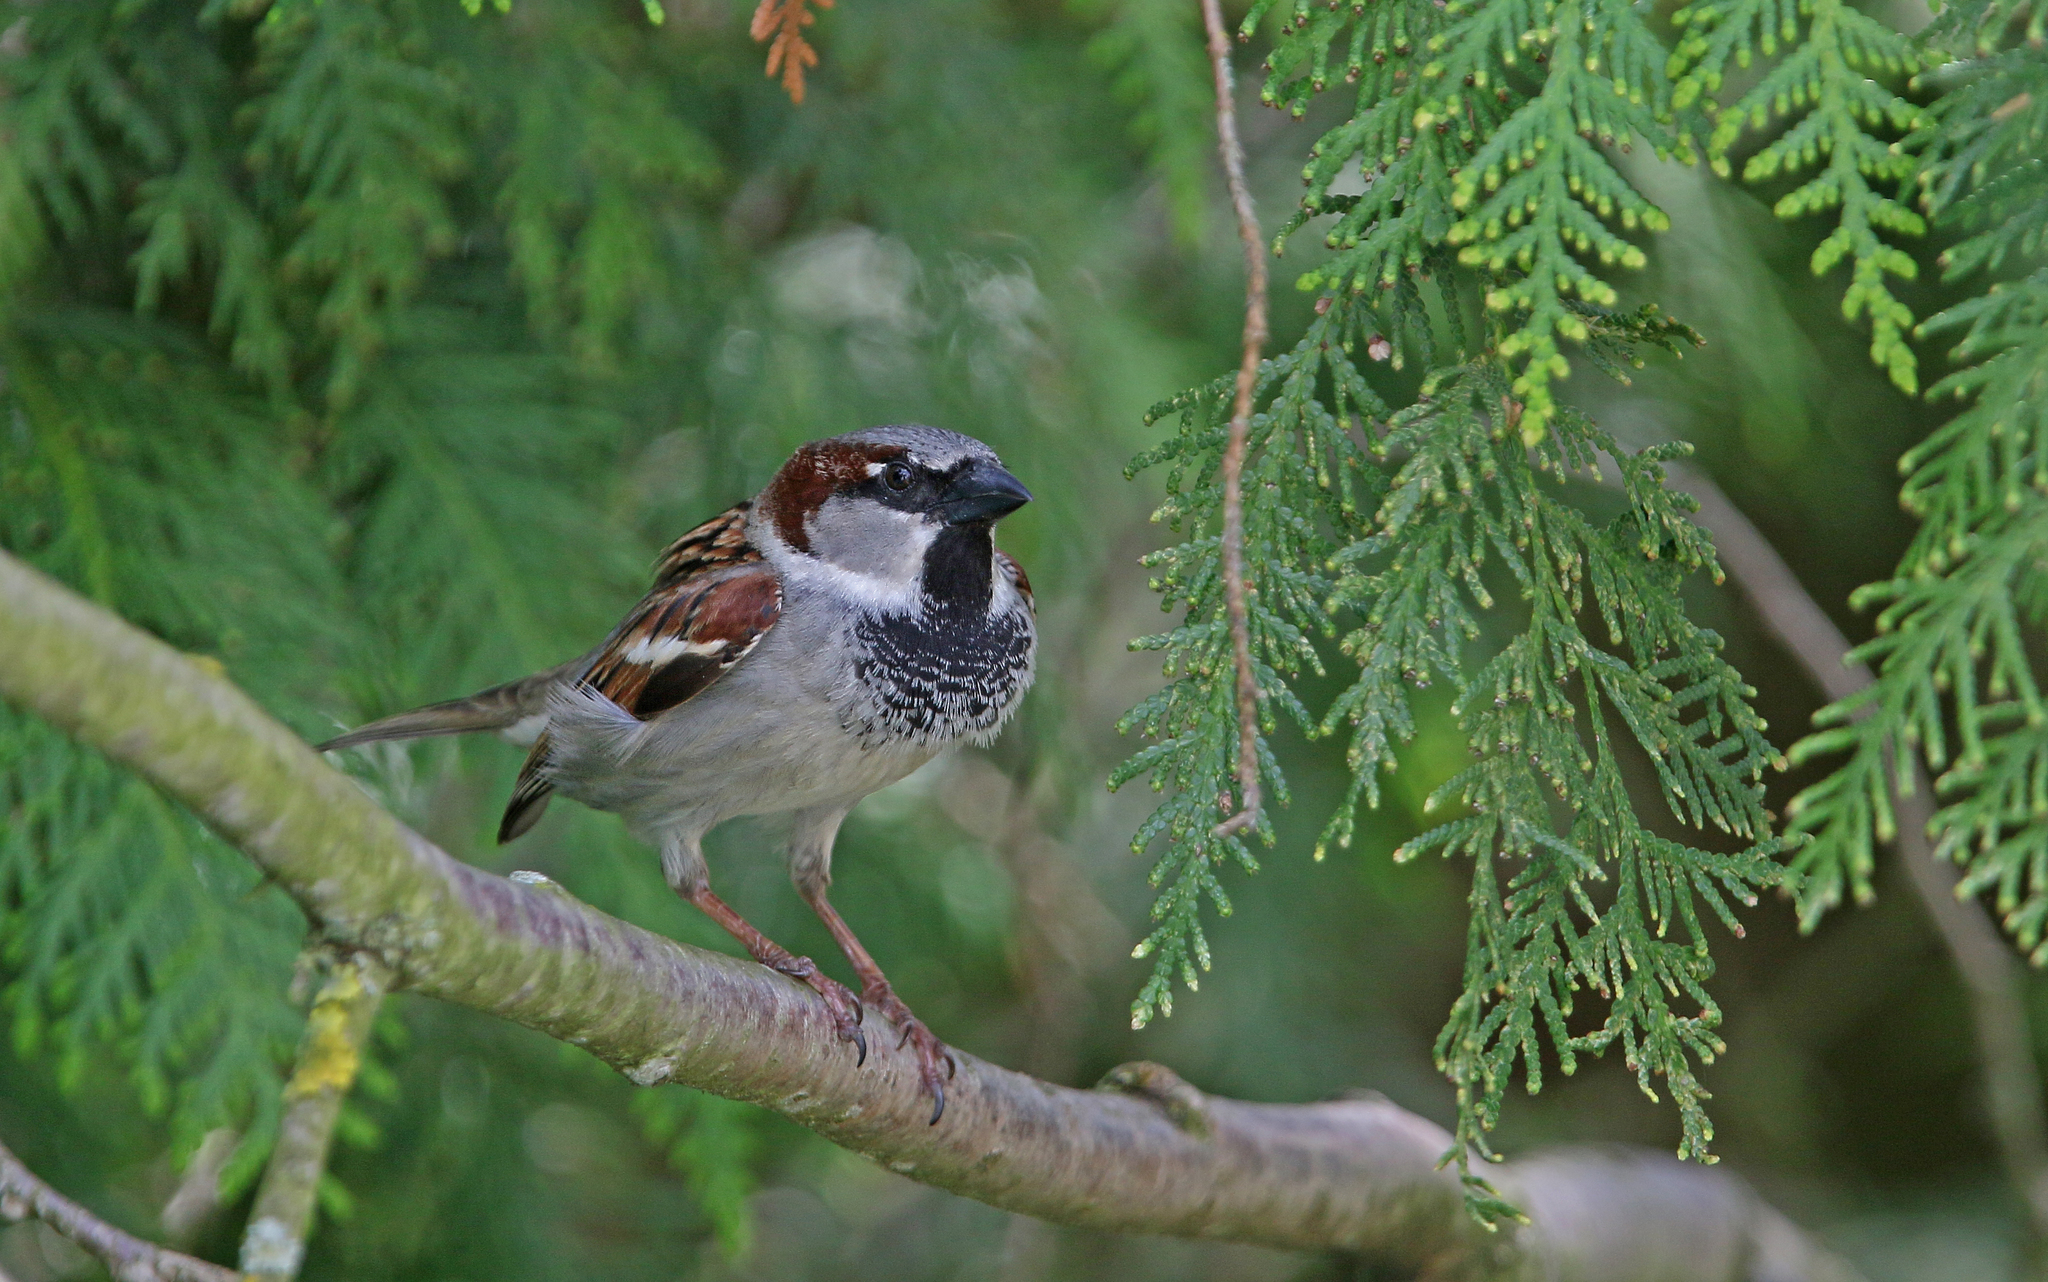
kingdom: Animalia
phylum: Chordata
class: Aves
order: Passeriformes
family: Passeridae
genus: Passer
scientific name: Passer domesticus
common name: House sparrow
